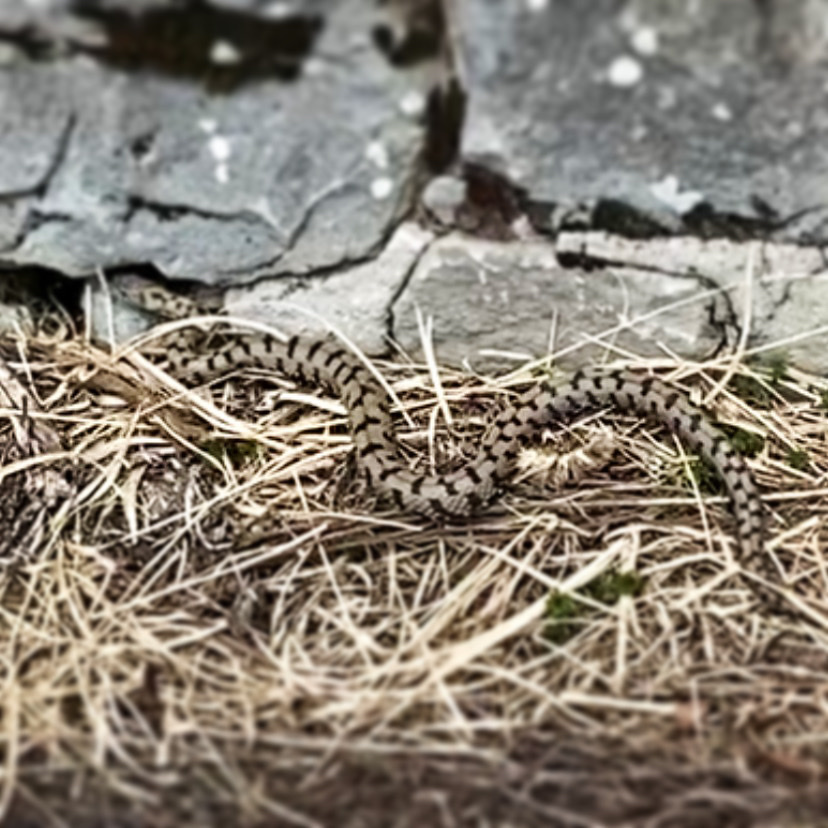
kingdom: Animalia
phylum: Chordata
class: Squamata
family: Viperidae
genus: Vipera
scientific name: Vipera aspis
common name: Asp viper
